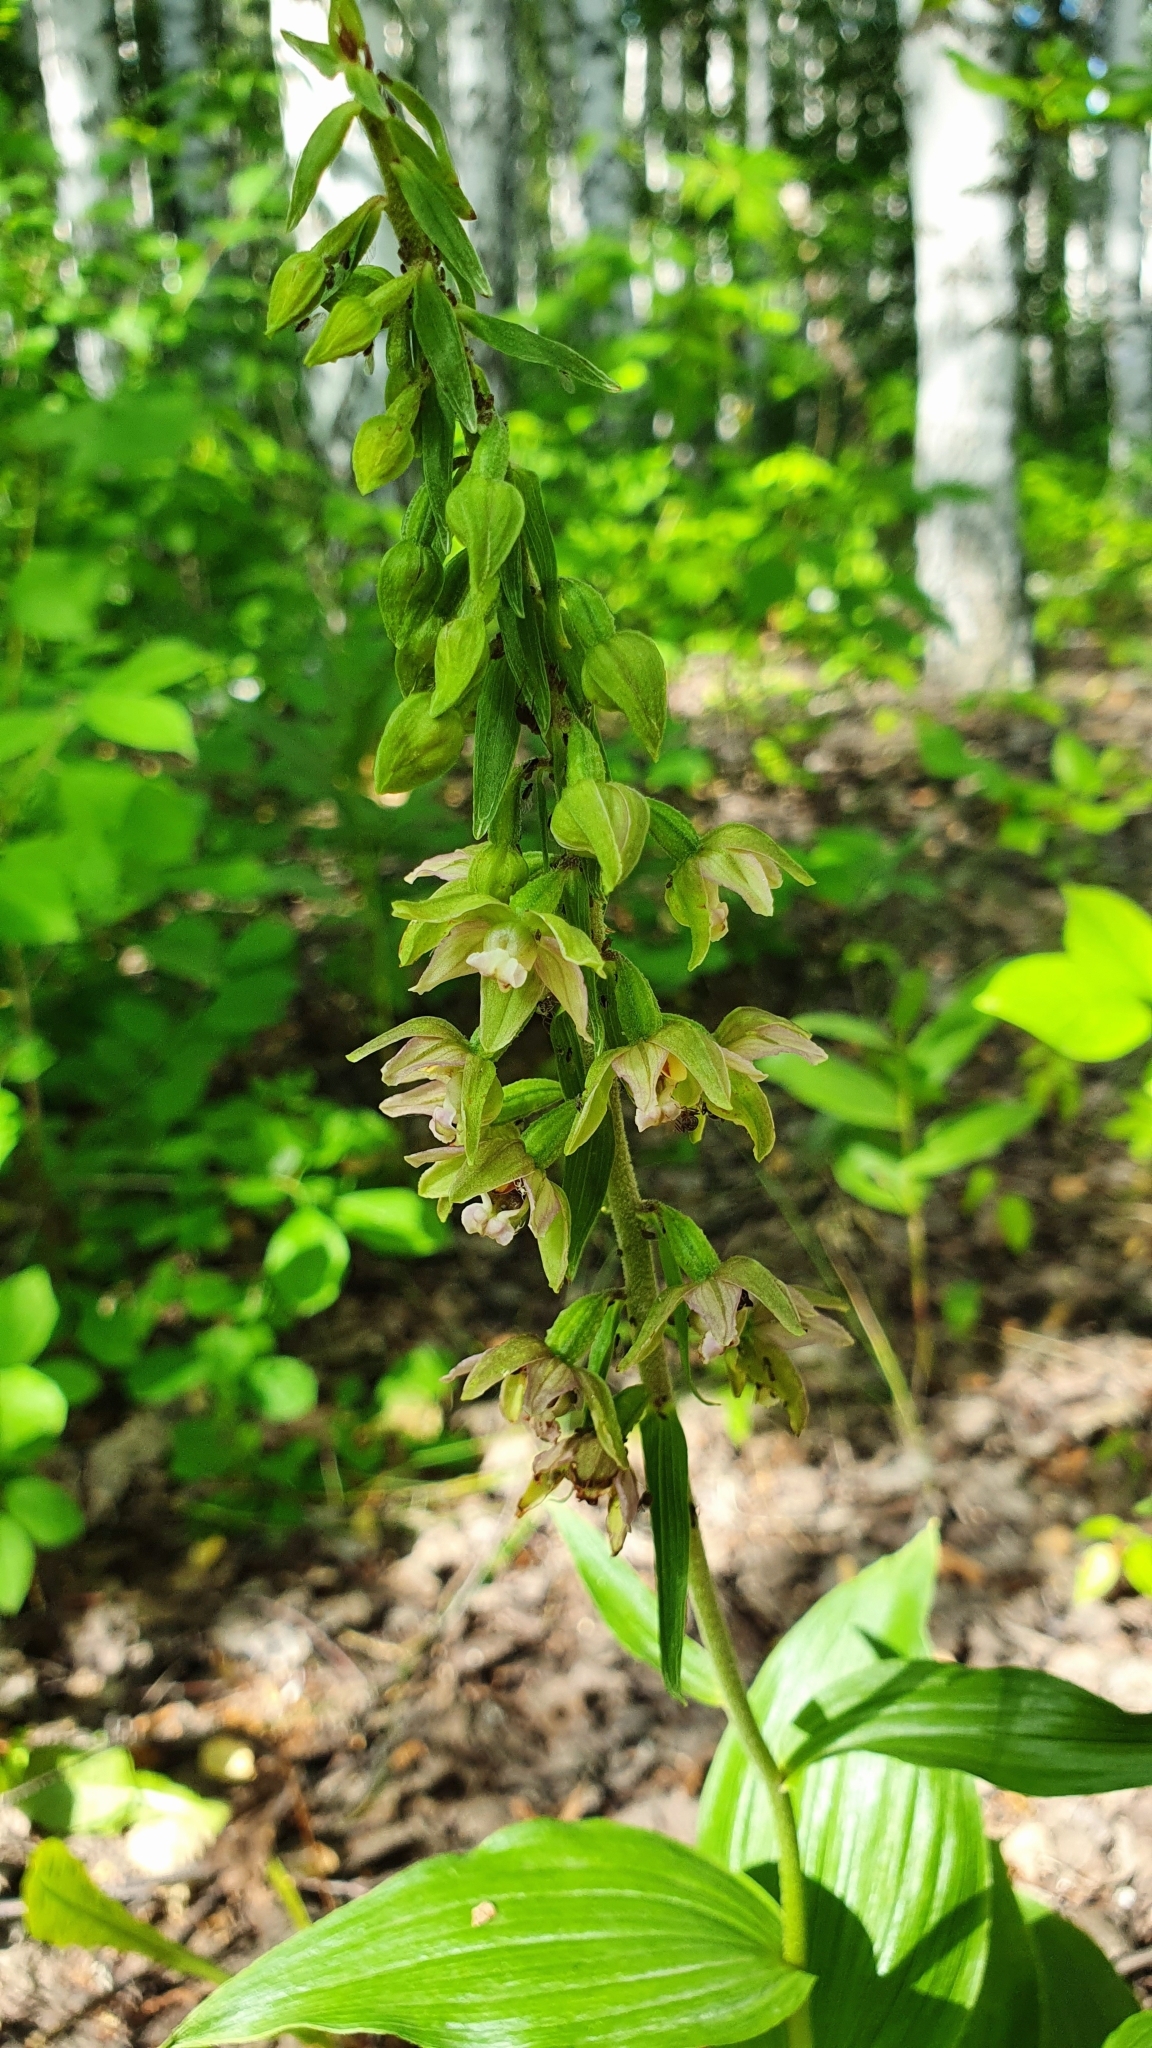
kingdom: Plantae
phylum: Tracheophyta
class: Liliopsida
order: Asparagales
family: Orchidaceae
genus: Epipactis
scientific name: Epipactis helleborine
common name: Broad-leaved helleborine
